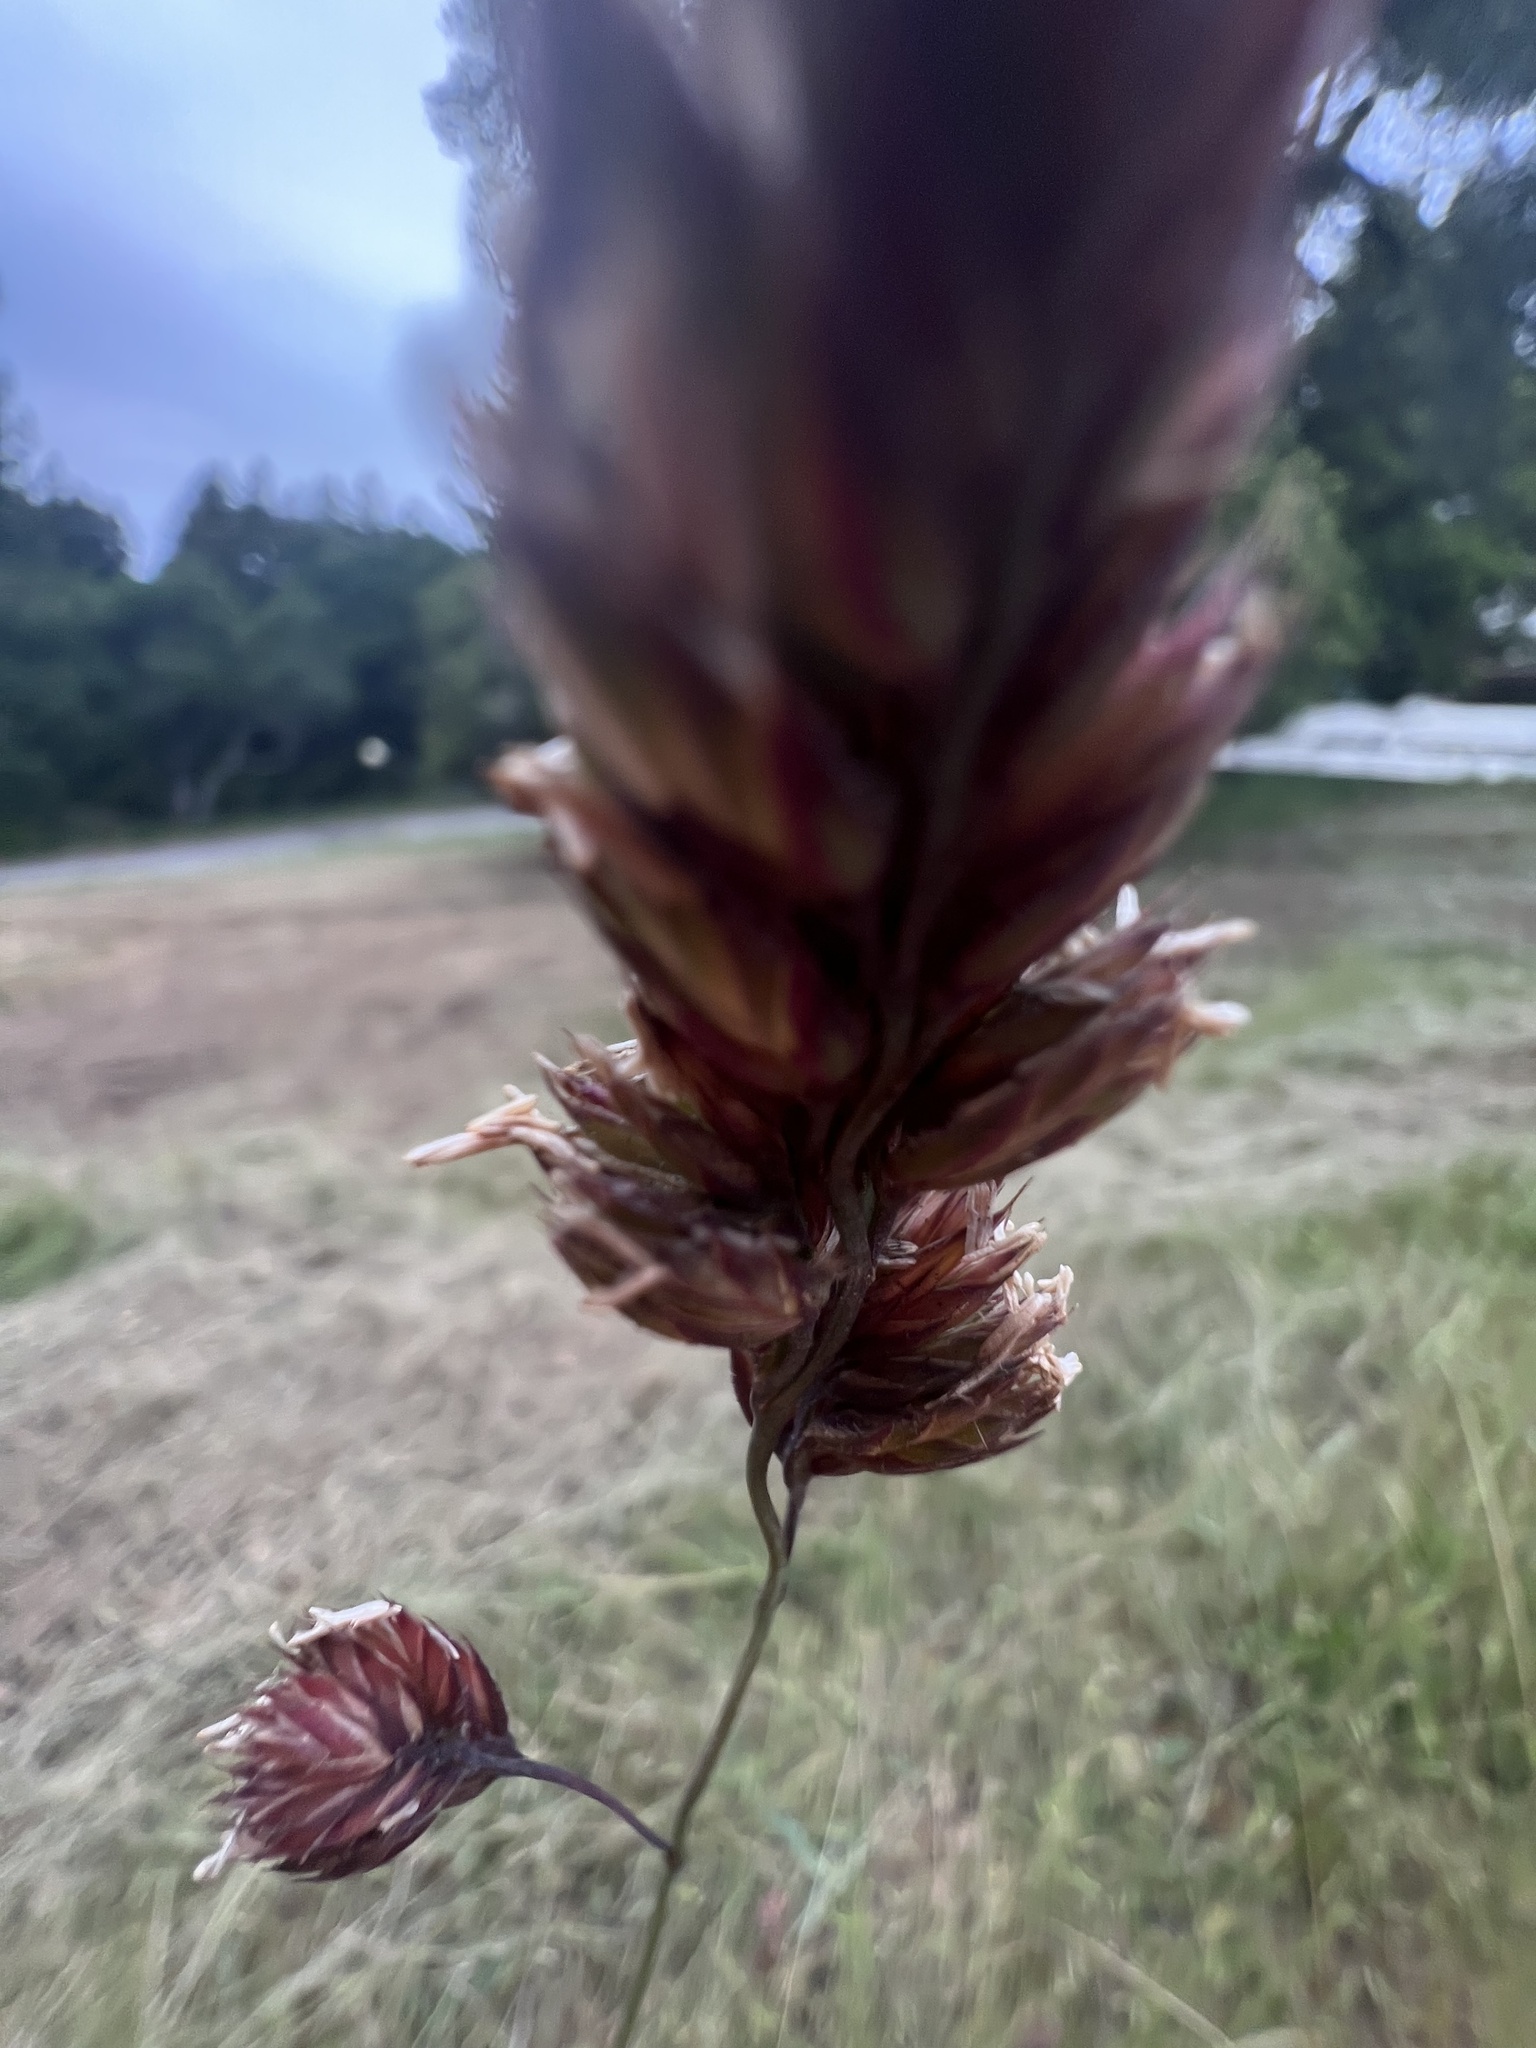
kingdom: Plantae
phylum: Tracheophyta
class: Liliopsida
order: Poales
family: Poaceae
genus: Dactylis
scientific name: Dactylis glomerata
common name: Orchardgrass
